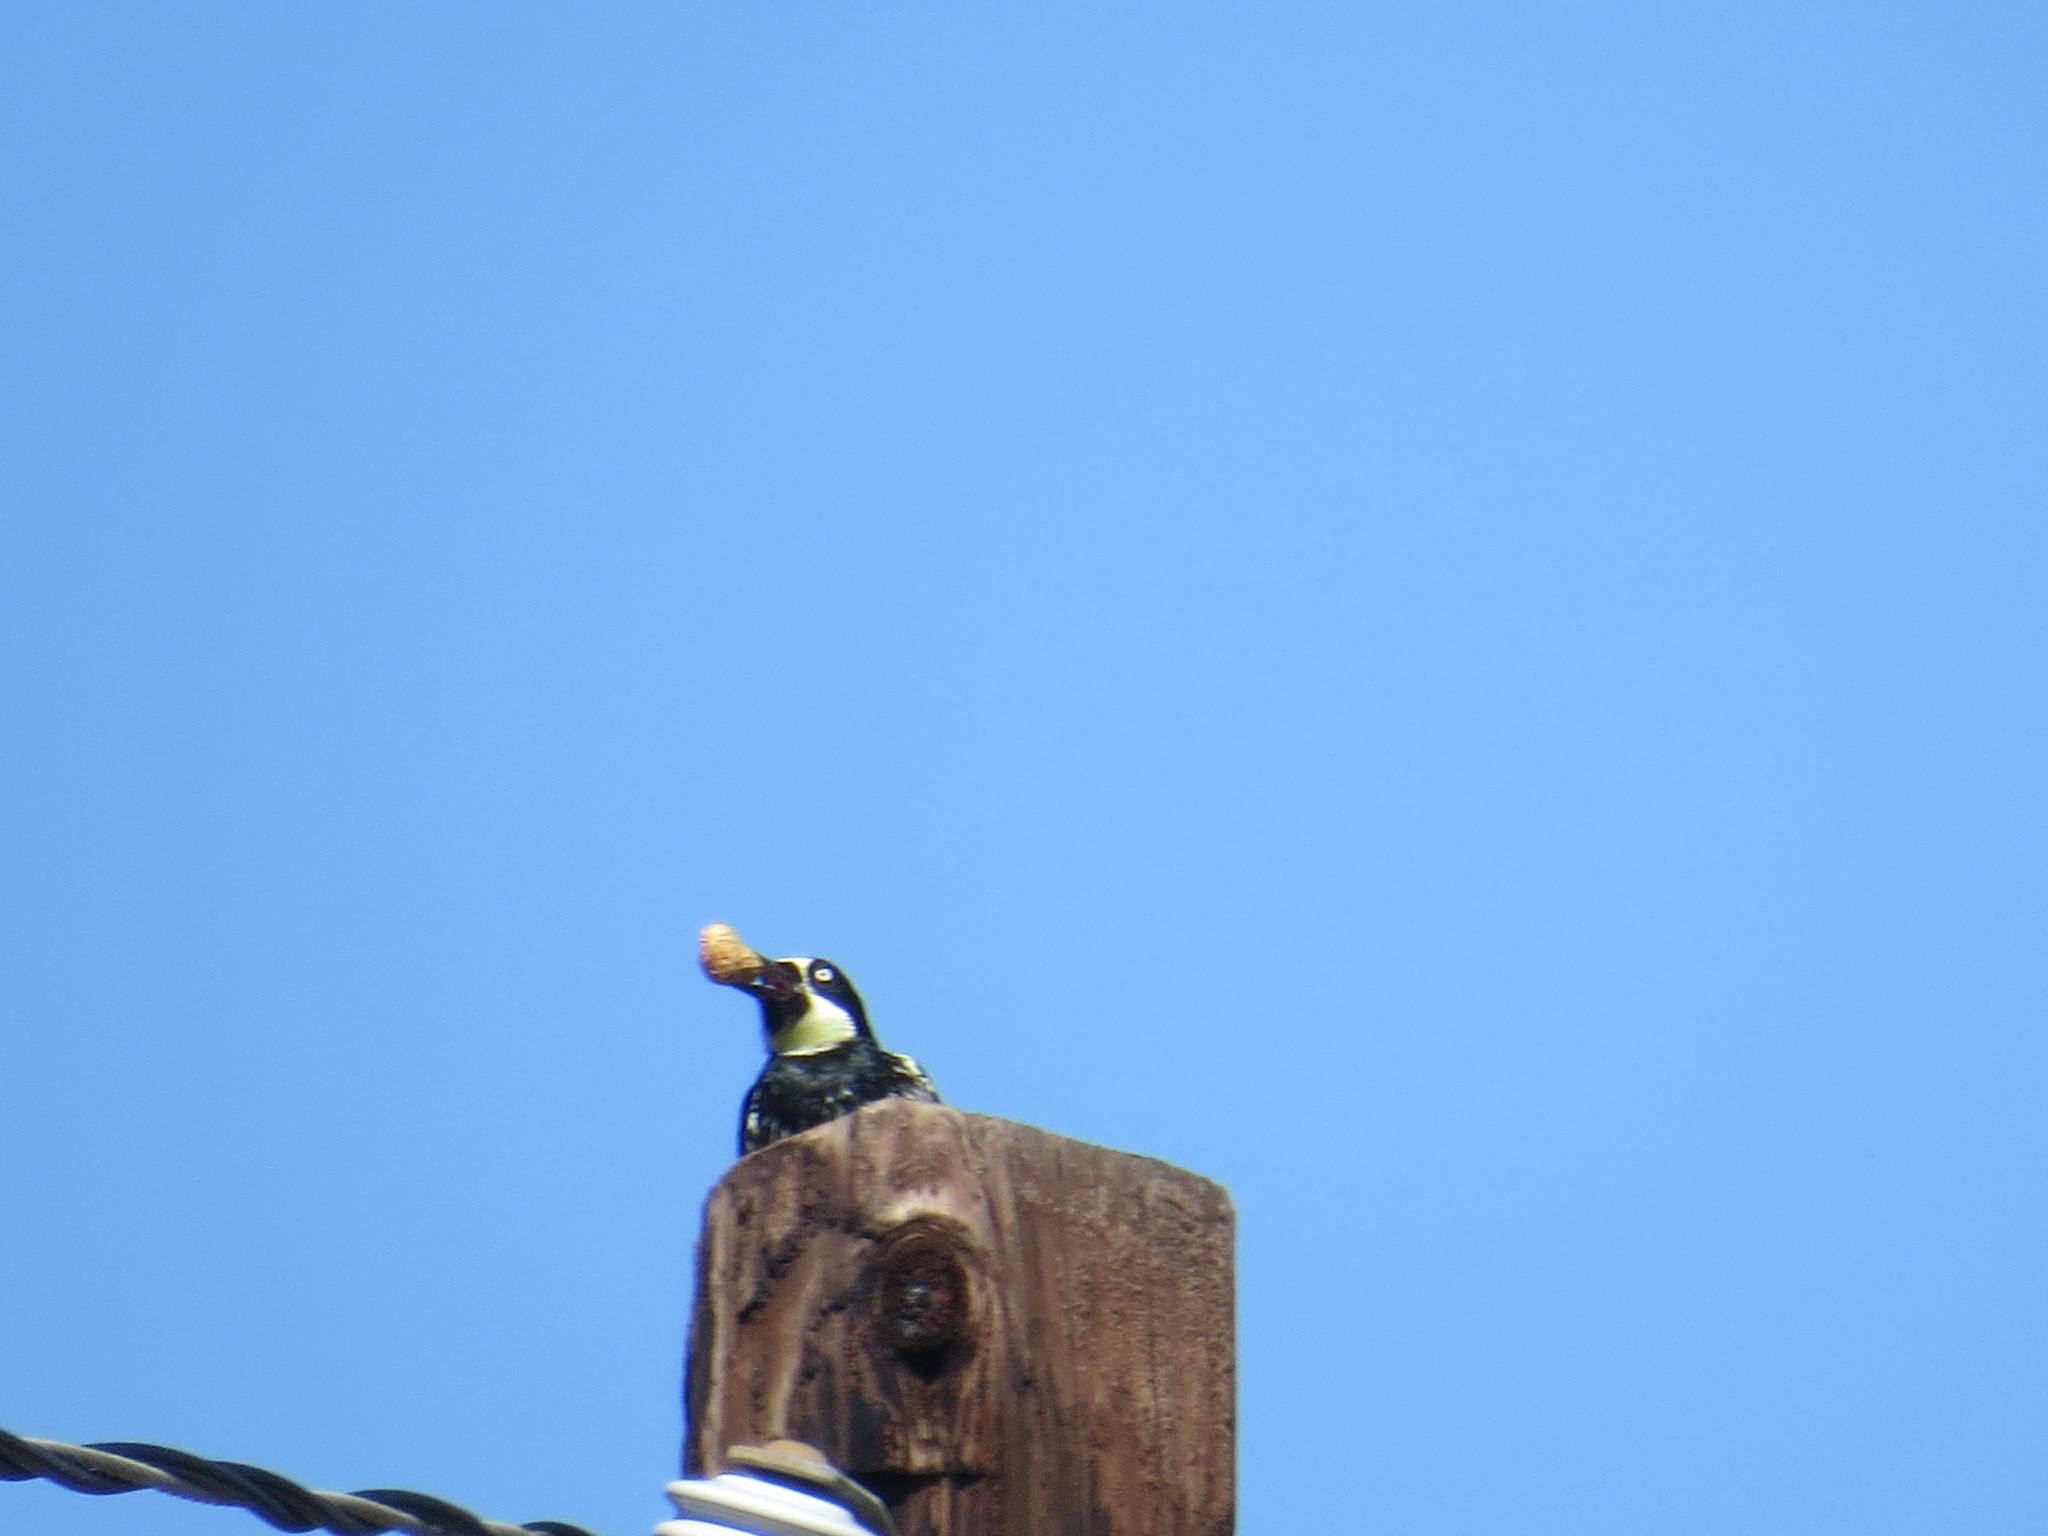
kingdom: Animalia
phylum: Chordata
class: Aves
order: Piciformes
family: Picidae
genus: Melanerpes
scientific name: Melanerpes formicivorus
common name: Acorn woodpecker
